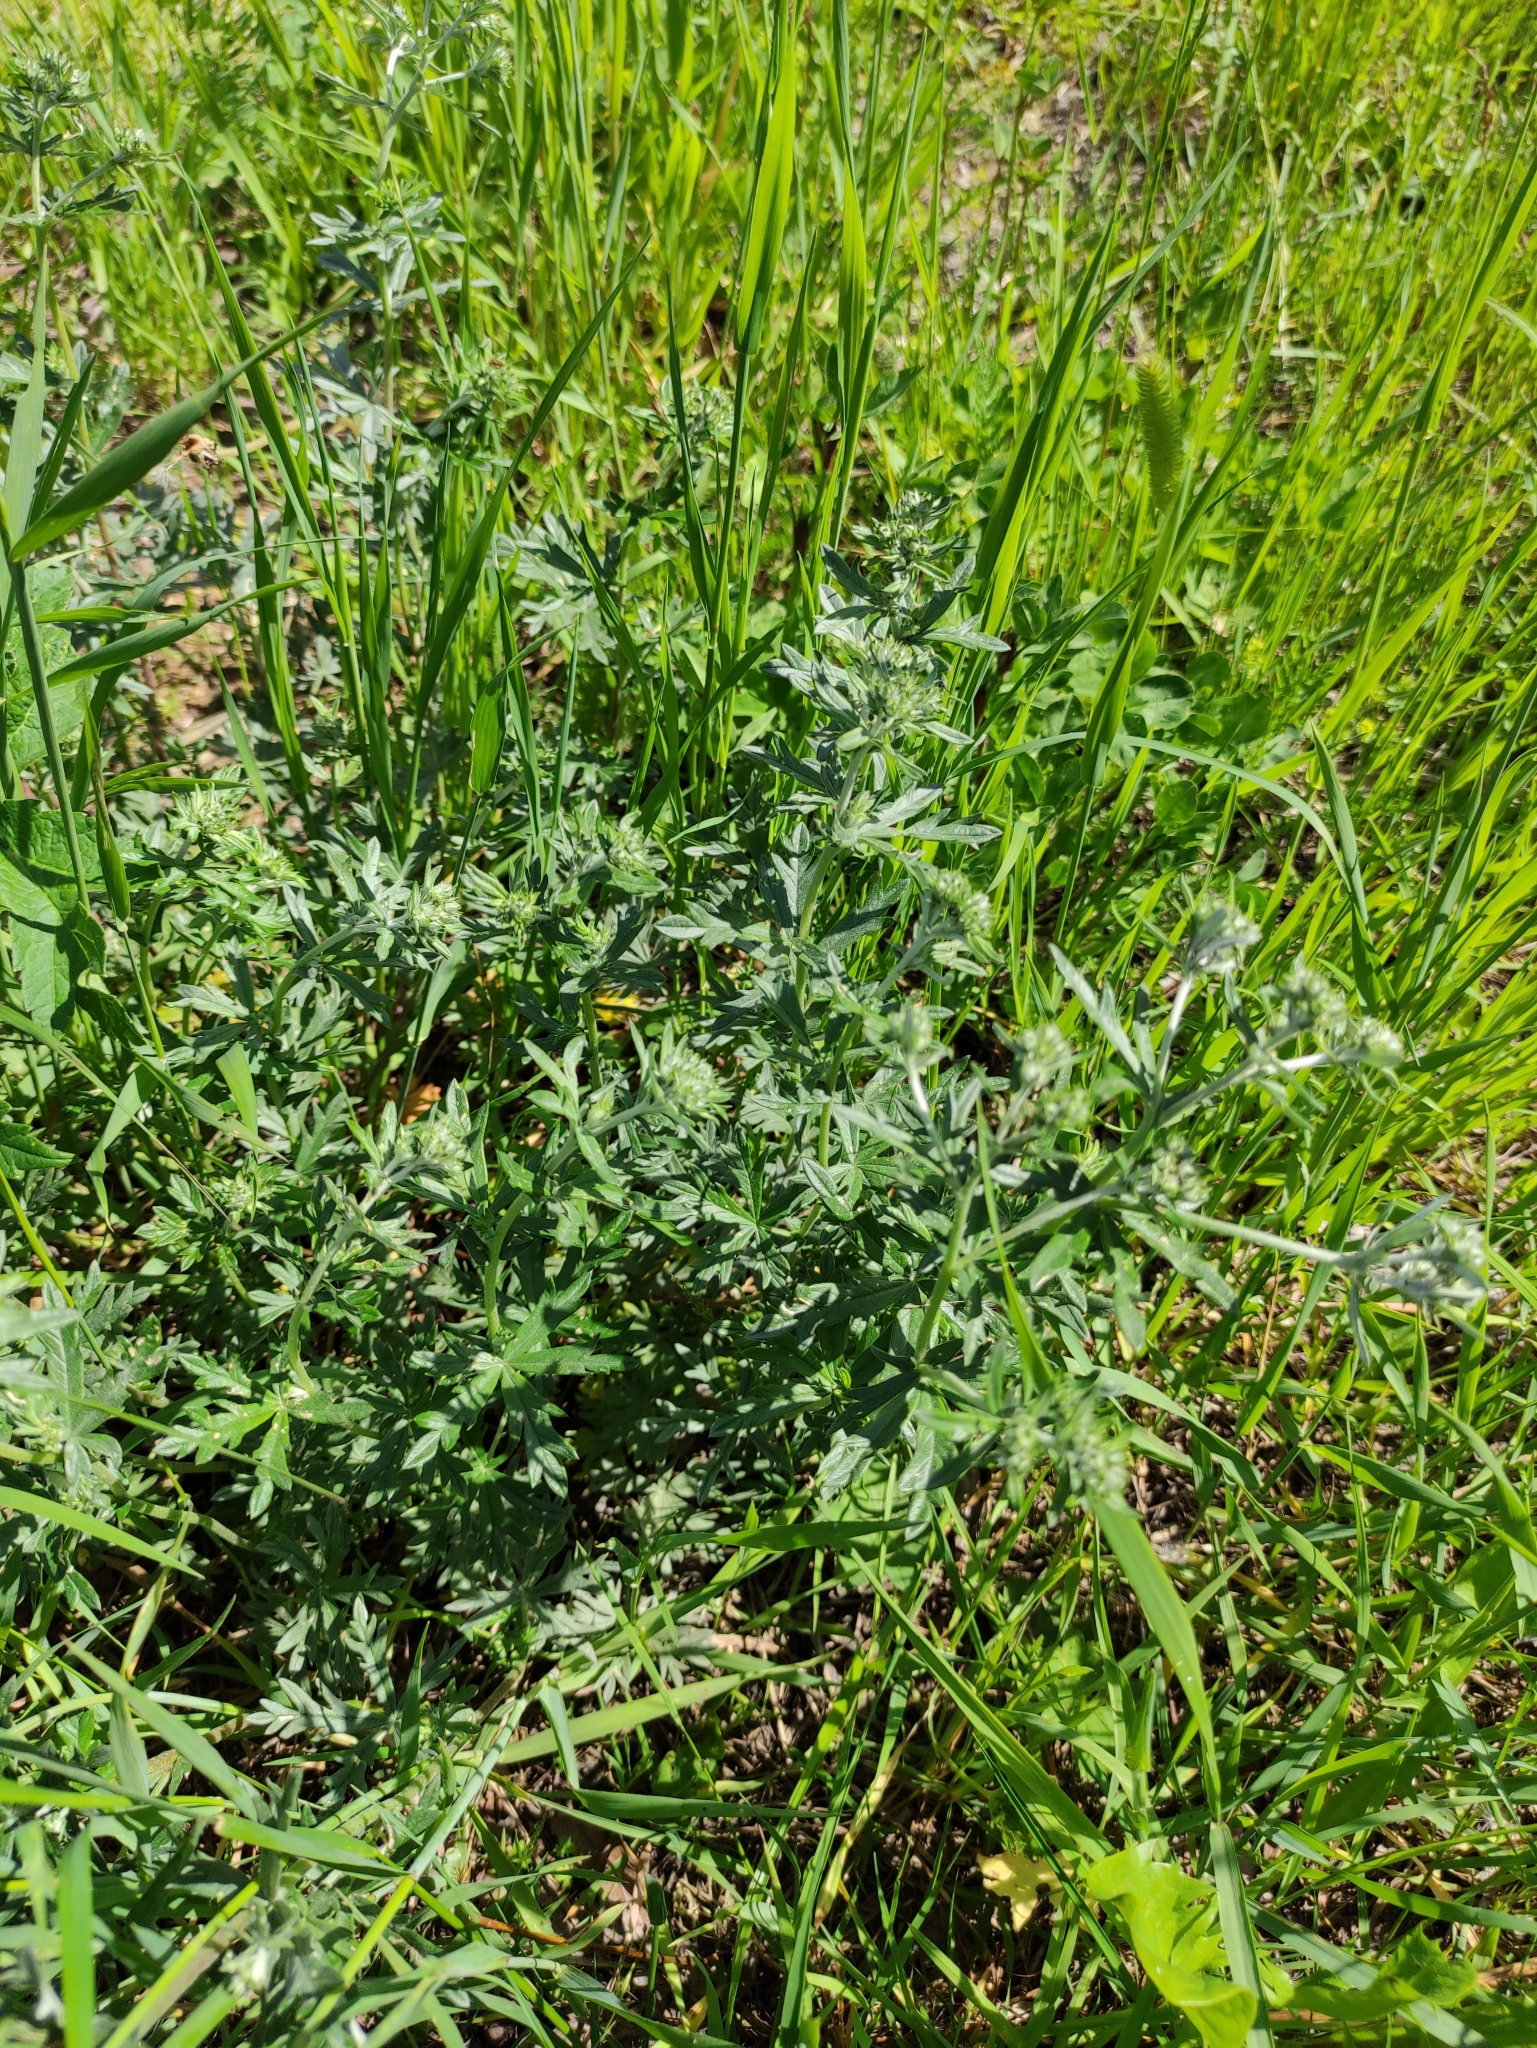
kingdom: Plantae
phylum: Tracheophyta
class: Magnoliopsida
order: Rosales
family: Rosaceae
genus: Potentilla
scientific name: Potentilla argentea
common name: Hoary cinquefoil
